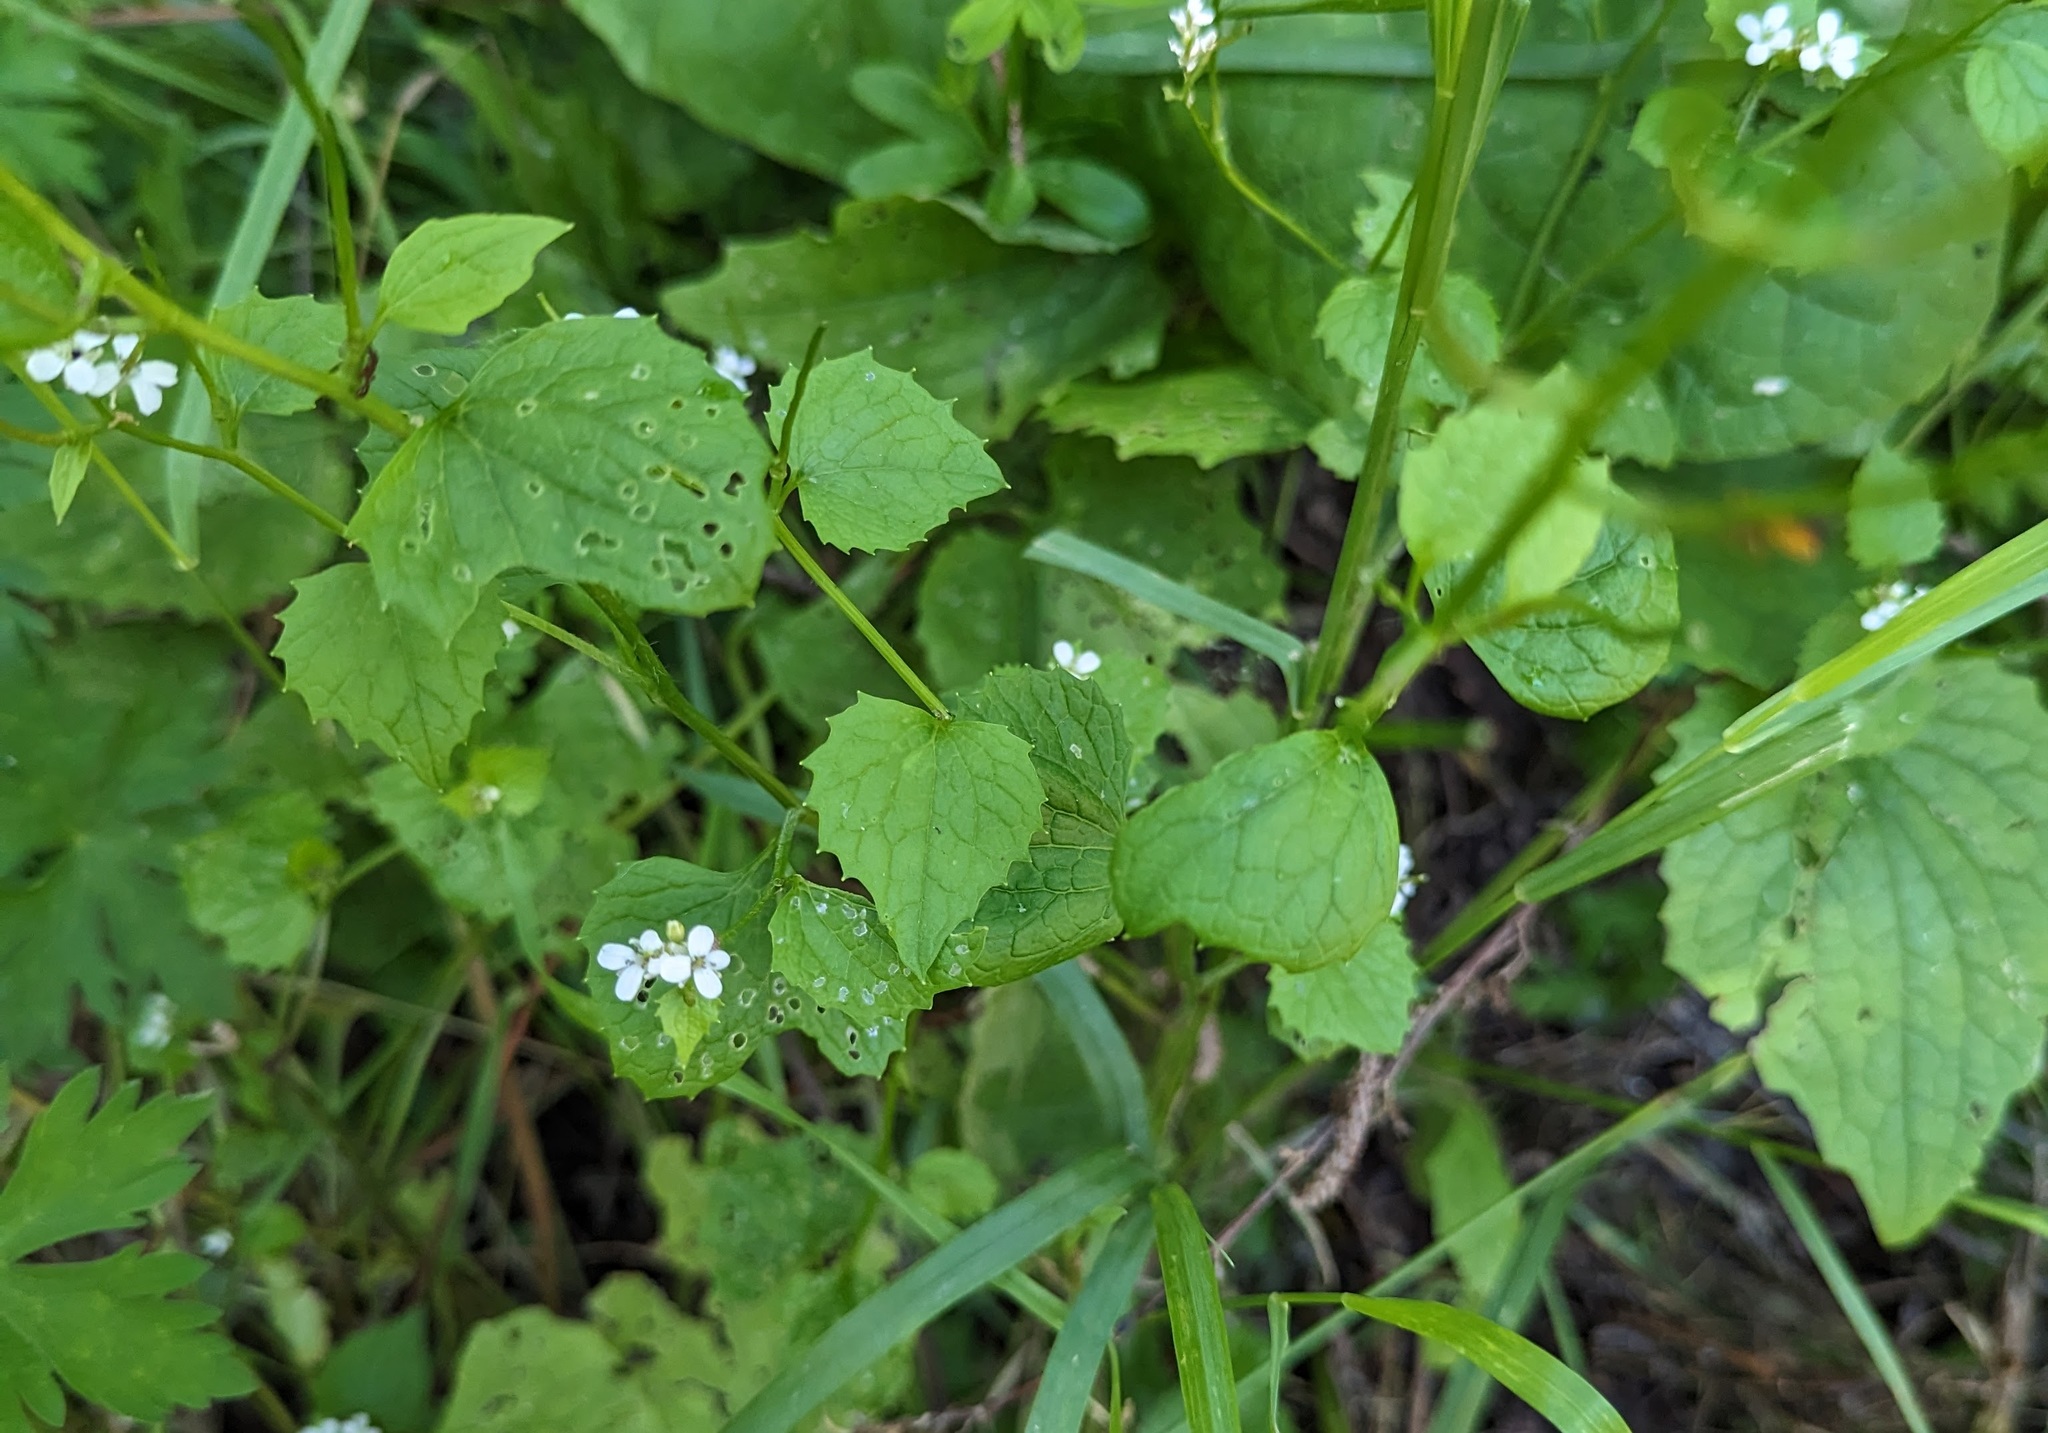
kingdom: Plantae
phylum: Tracheophyta
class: Magnoliopsida
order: Brassicales
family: Brassicaceae
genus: Alliaria
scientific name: Alliaria petiolata
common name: Garlic mustard
